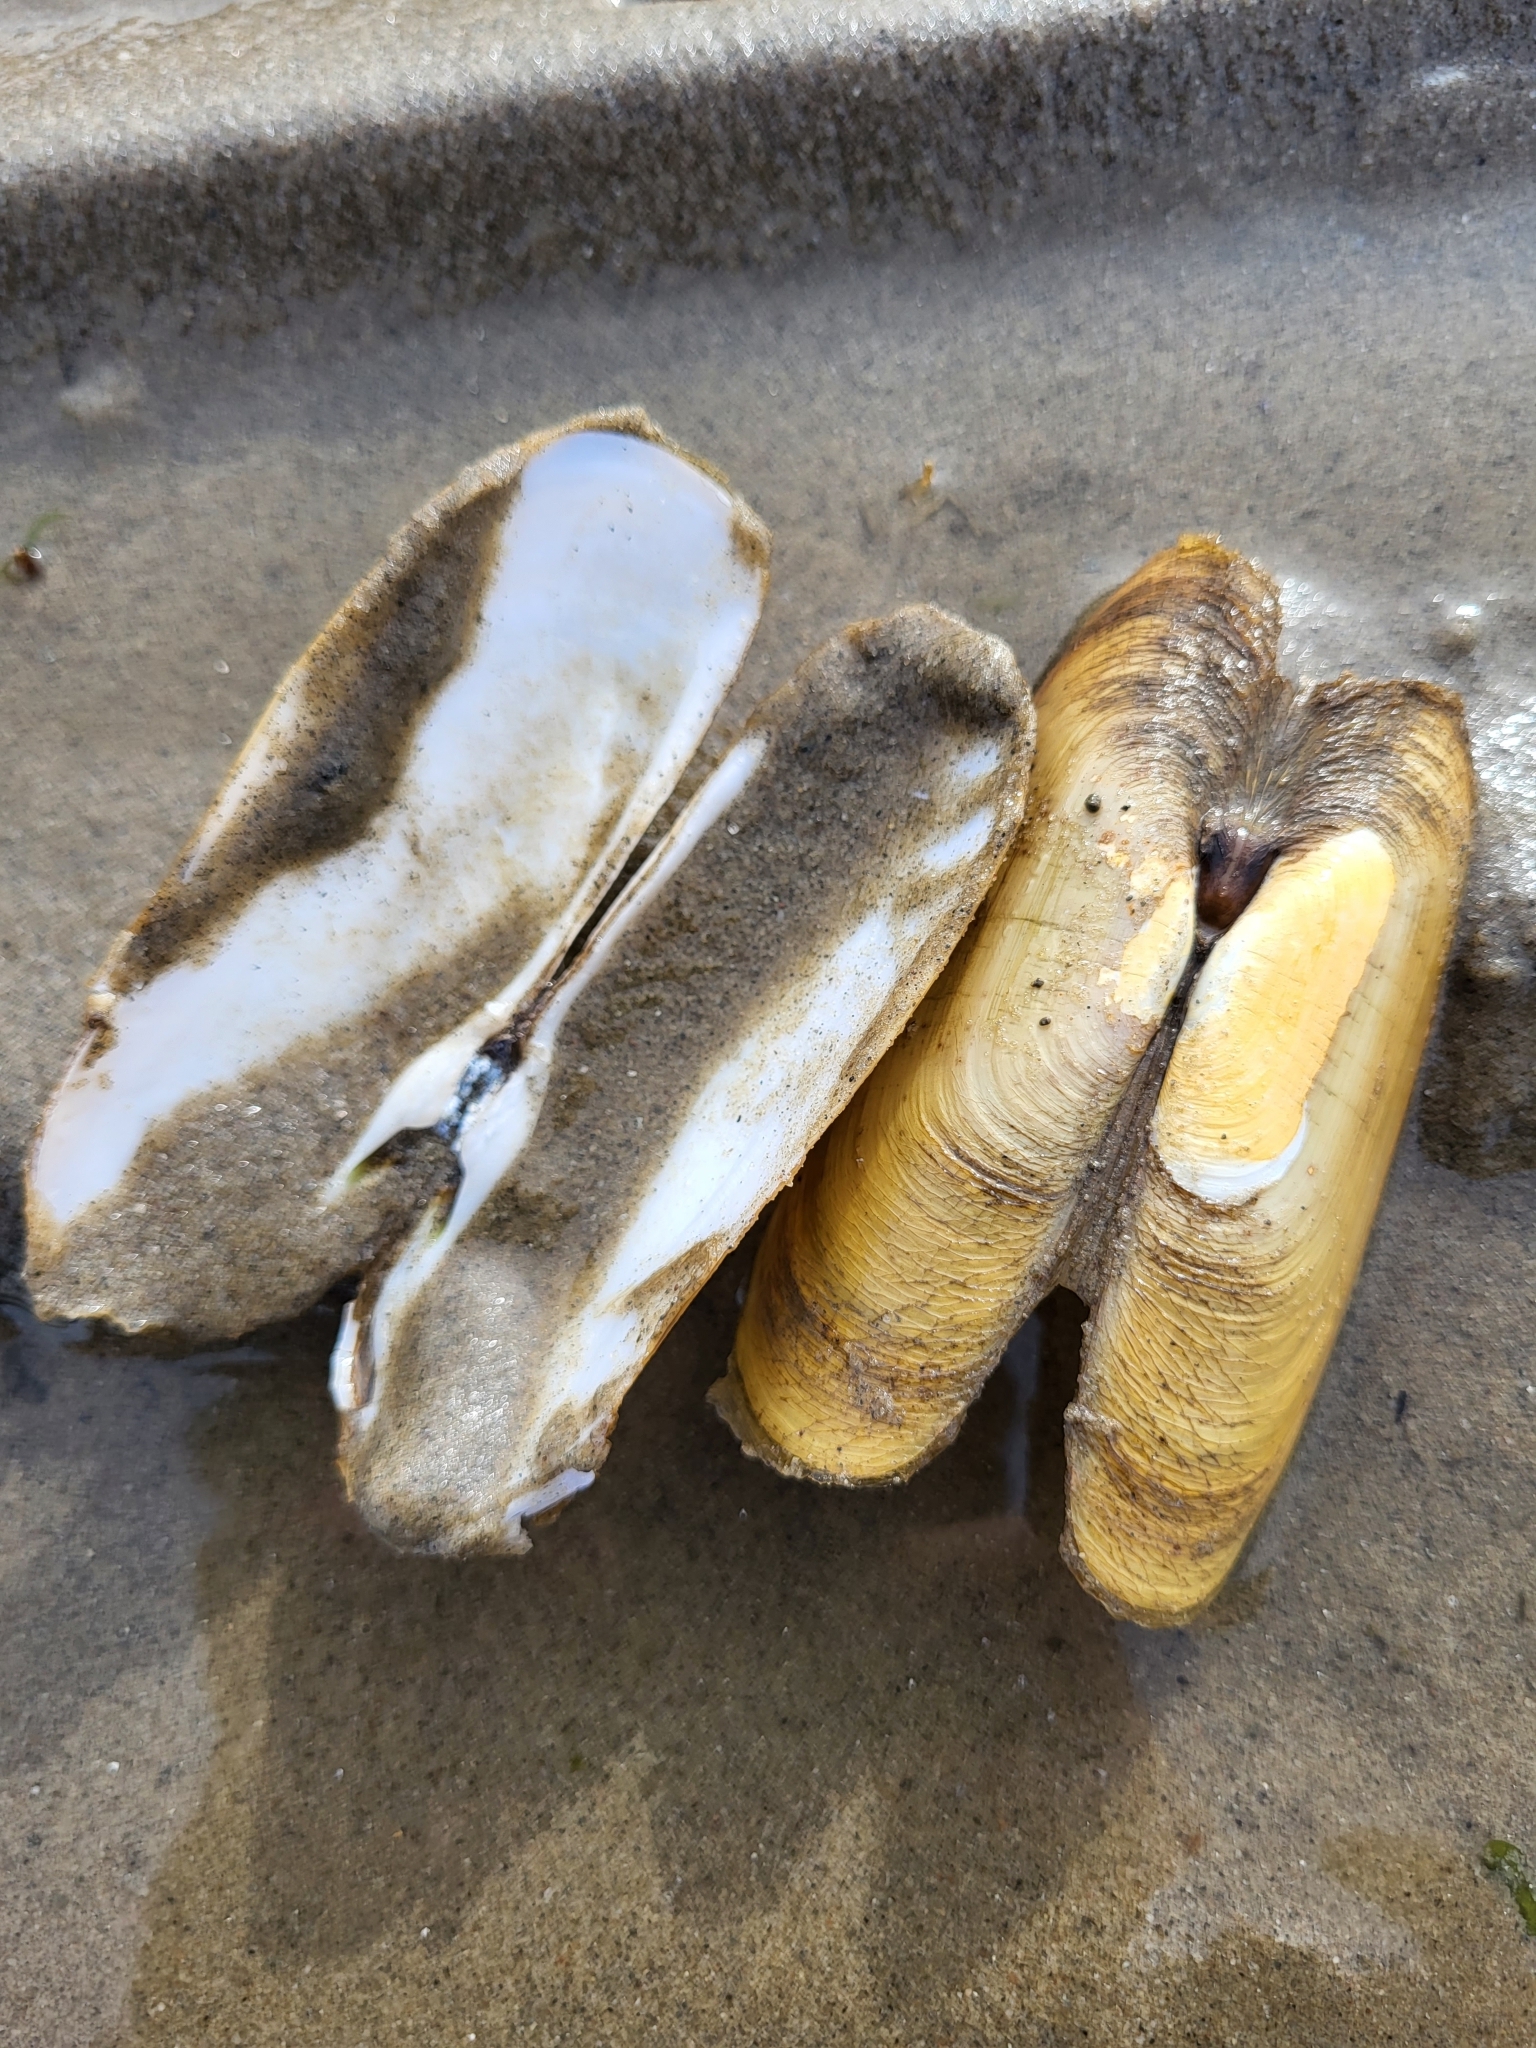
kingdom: Animalia
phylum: Mollusca
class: Bivalvia
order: Cardiida
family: Solecurtidae
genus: Tagelus
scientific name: Tagelus plebeius
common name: Stout tagelus
